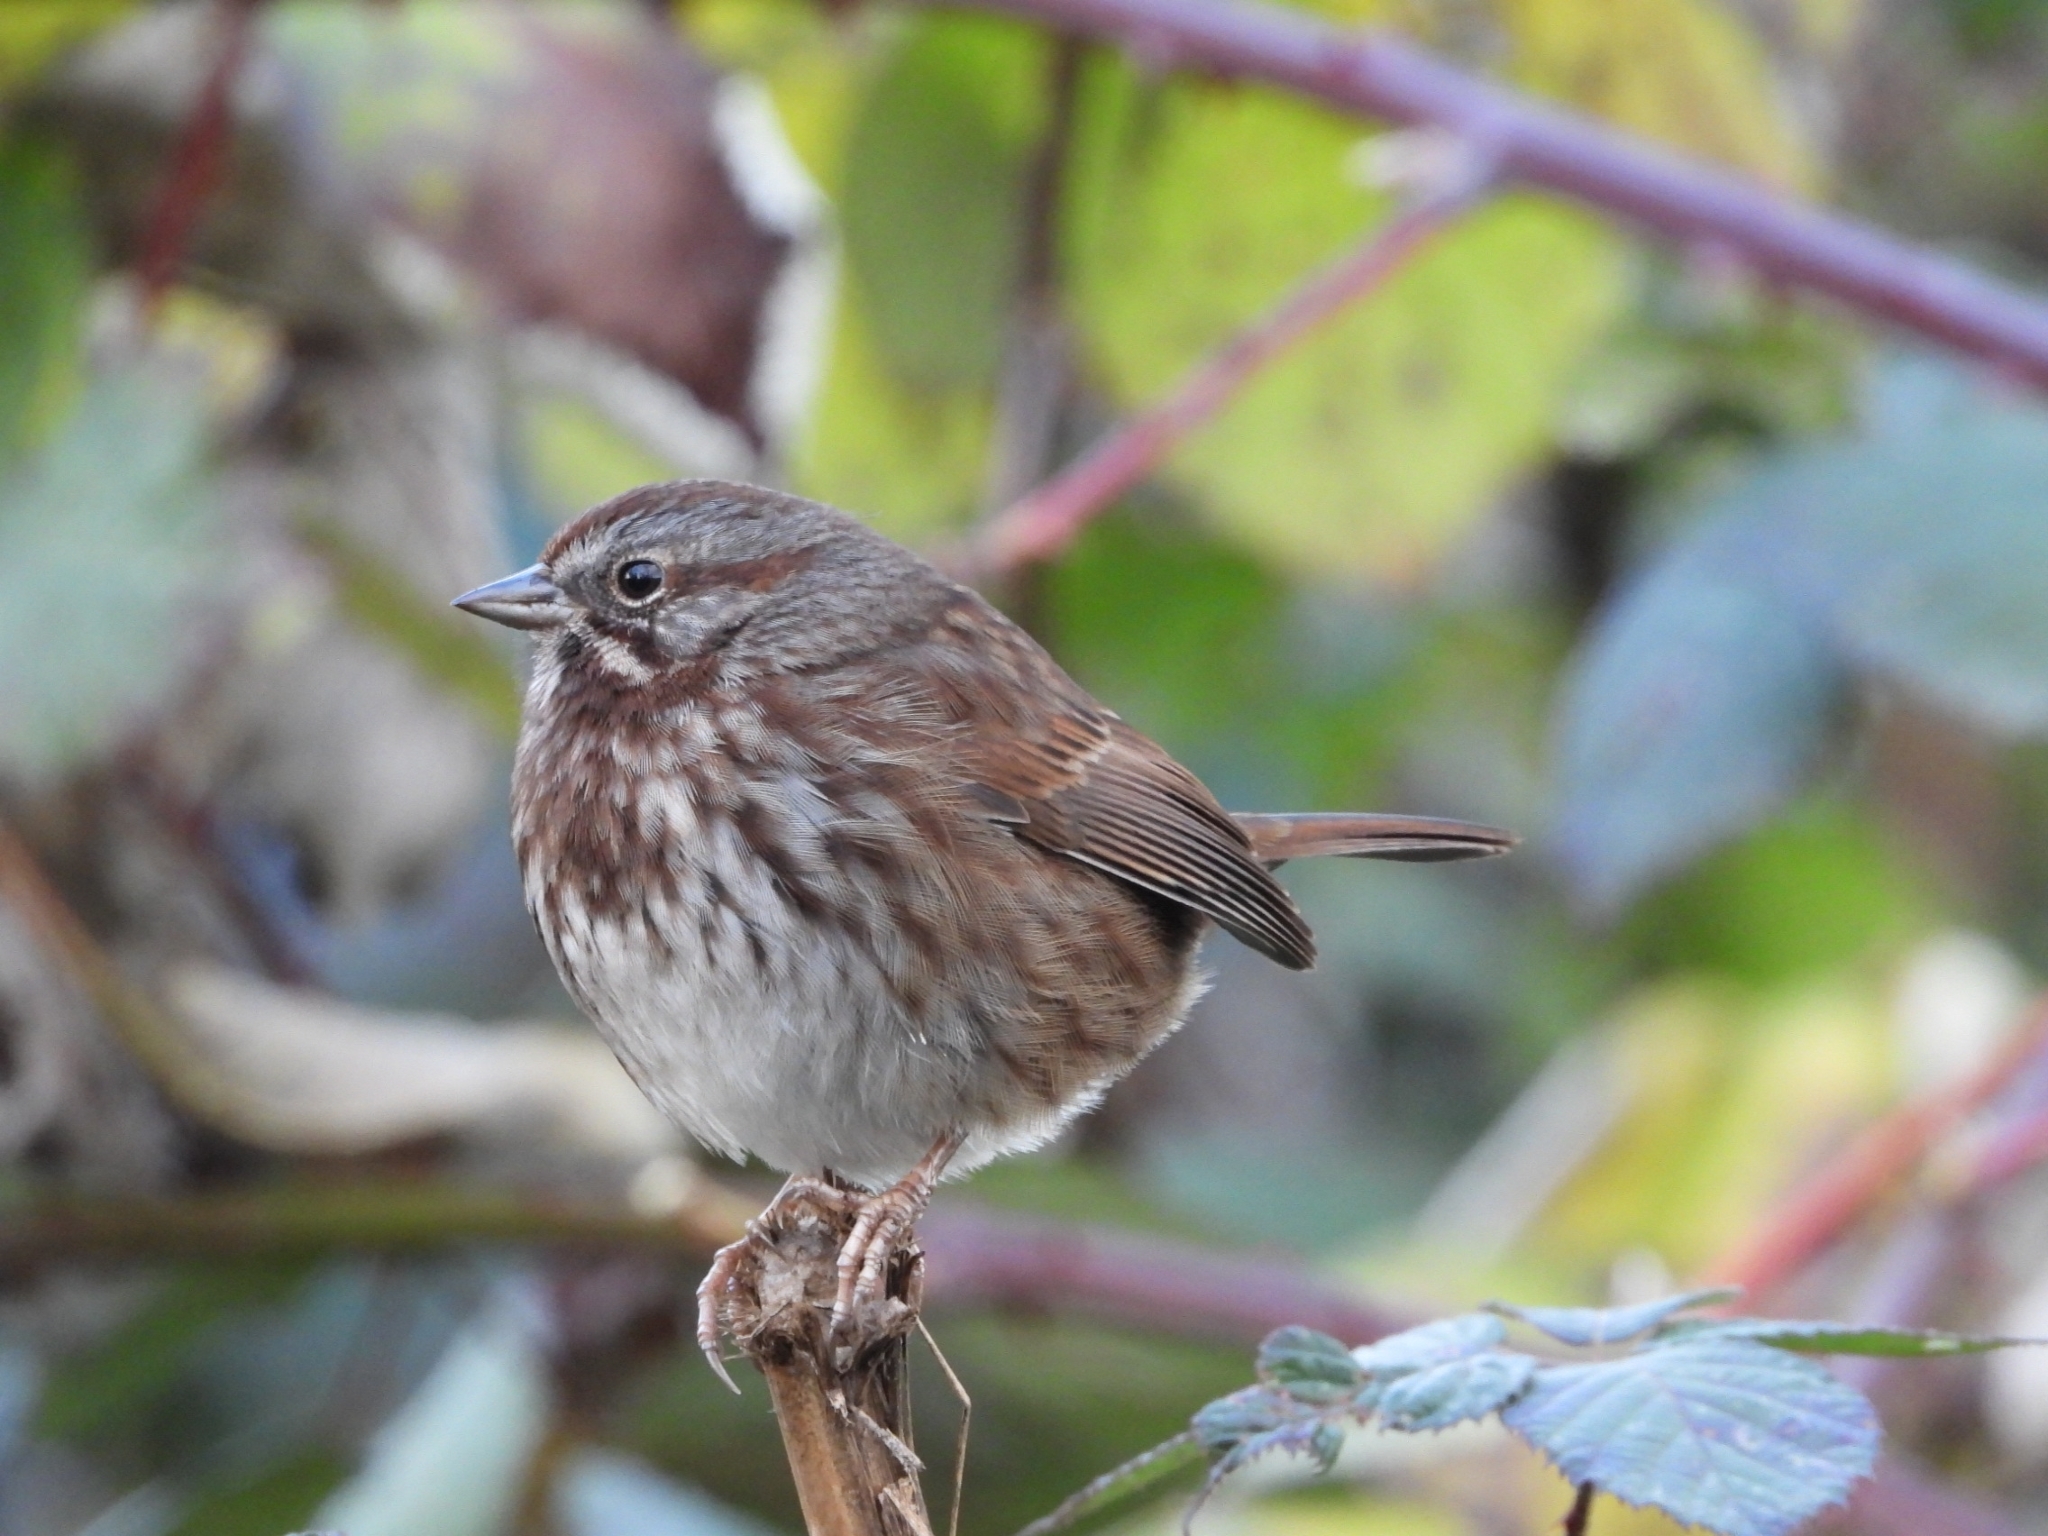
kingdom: Animalia
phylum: Chordata
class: Aves
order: Passeriformes
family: Passerellidae
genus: Melospiza
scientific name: Melospiza melodia
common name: Song sparrow
